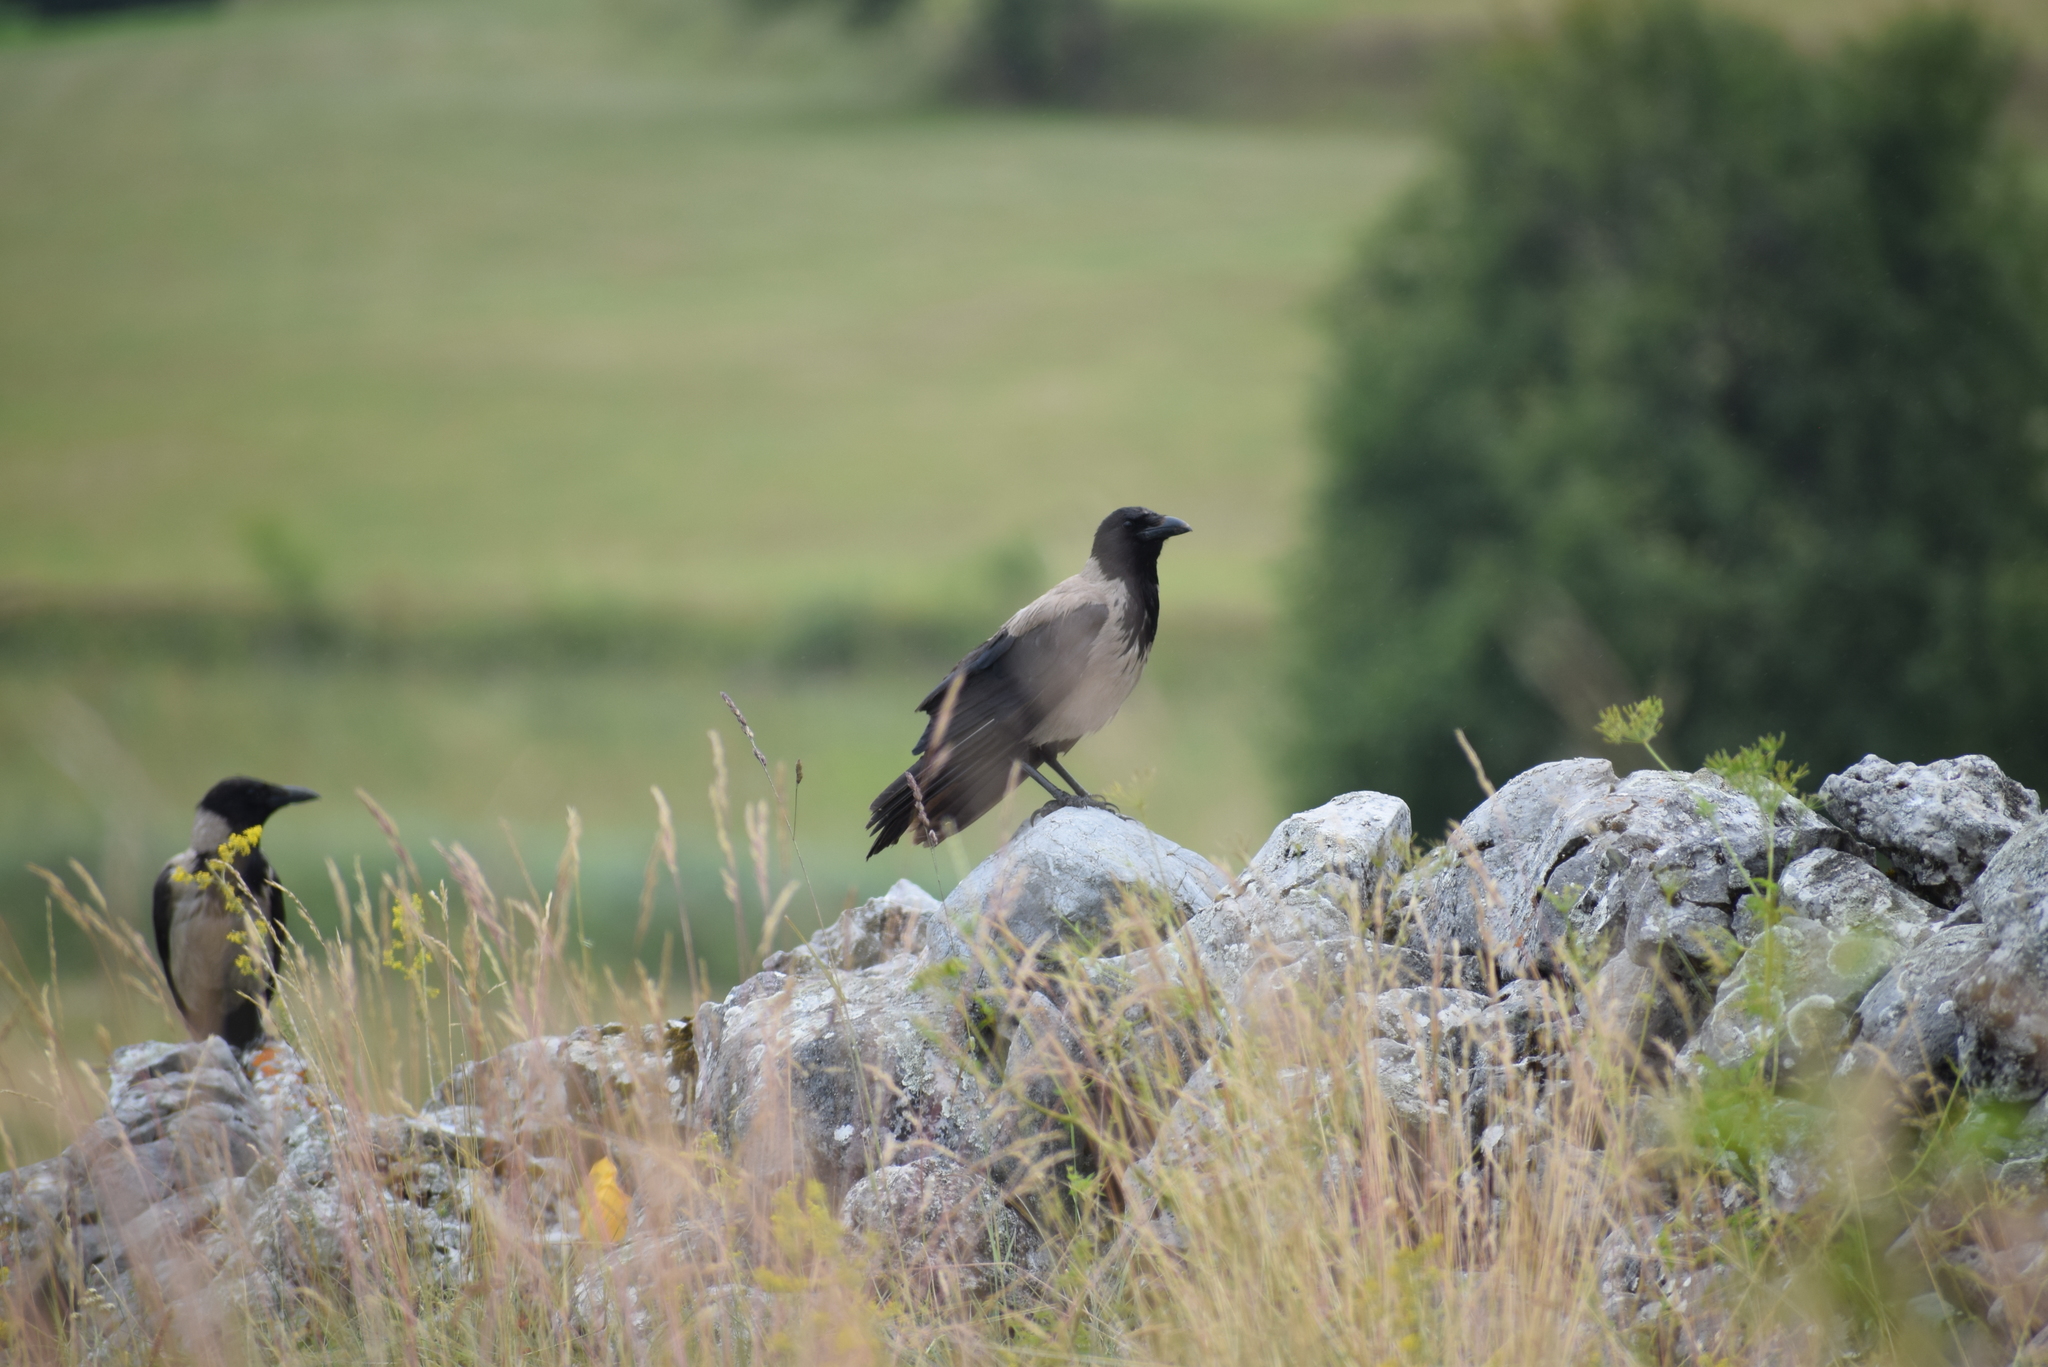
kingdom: Animalia
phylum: Chordata
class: Aves
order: Passeriformes
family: Corvidae
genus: Corvus
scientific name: Corvus cornix
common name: Hooded crow
